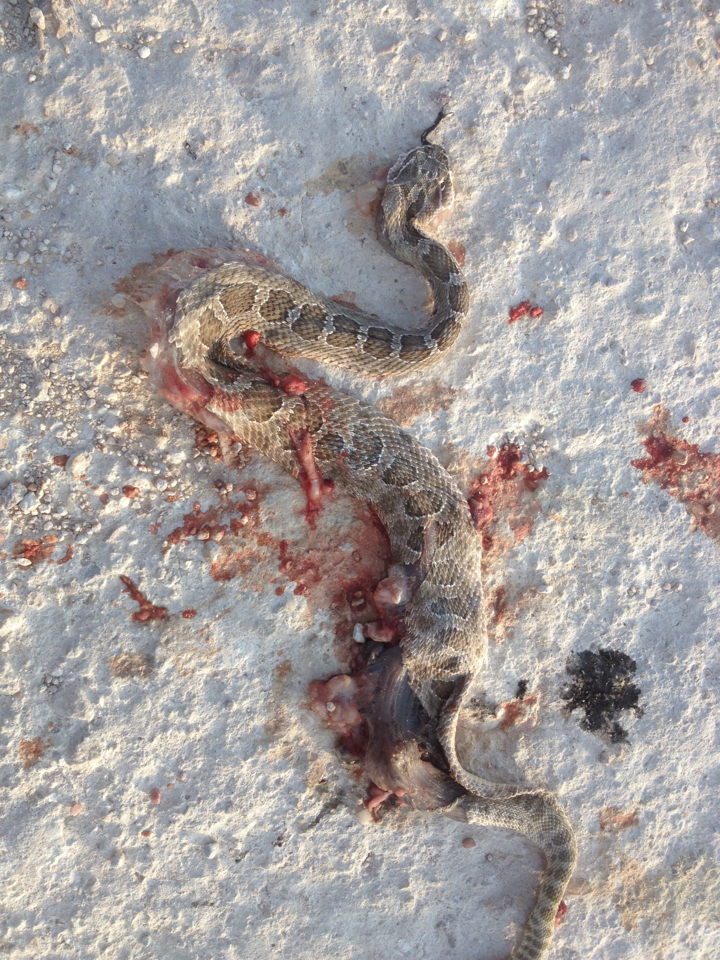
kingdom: Animalia
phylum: Chordata
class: Squamata
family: Viperidae
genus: Crotalus
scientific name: Crotalus viridis
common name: Prairie rattlesnake
